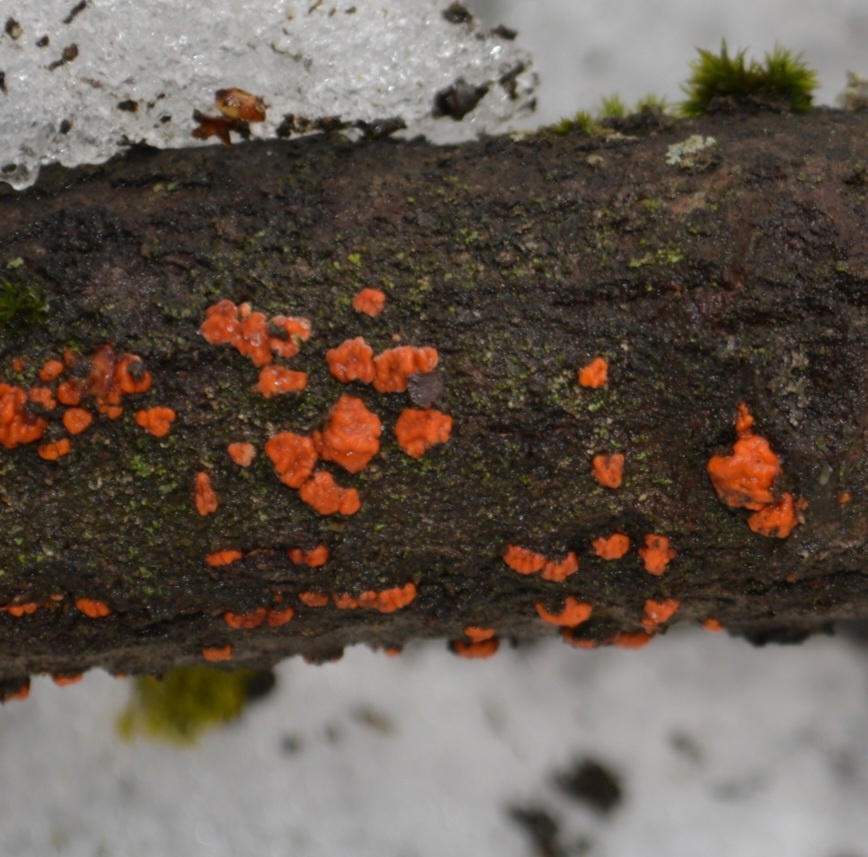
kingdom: Fungi
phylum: Basidiomycota
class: Agaricomycetes
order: Russulales
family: Peniophoraceae
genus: Peniophora
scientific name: Peniophora rufa
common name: Red tree brain fungus
